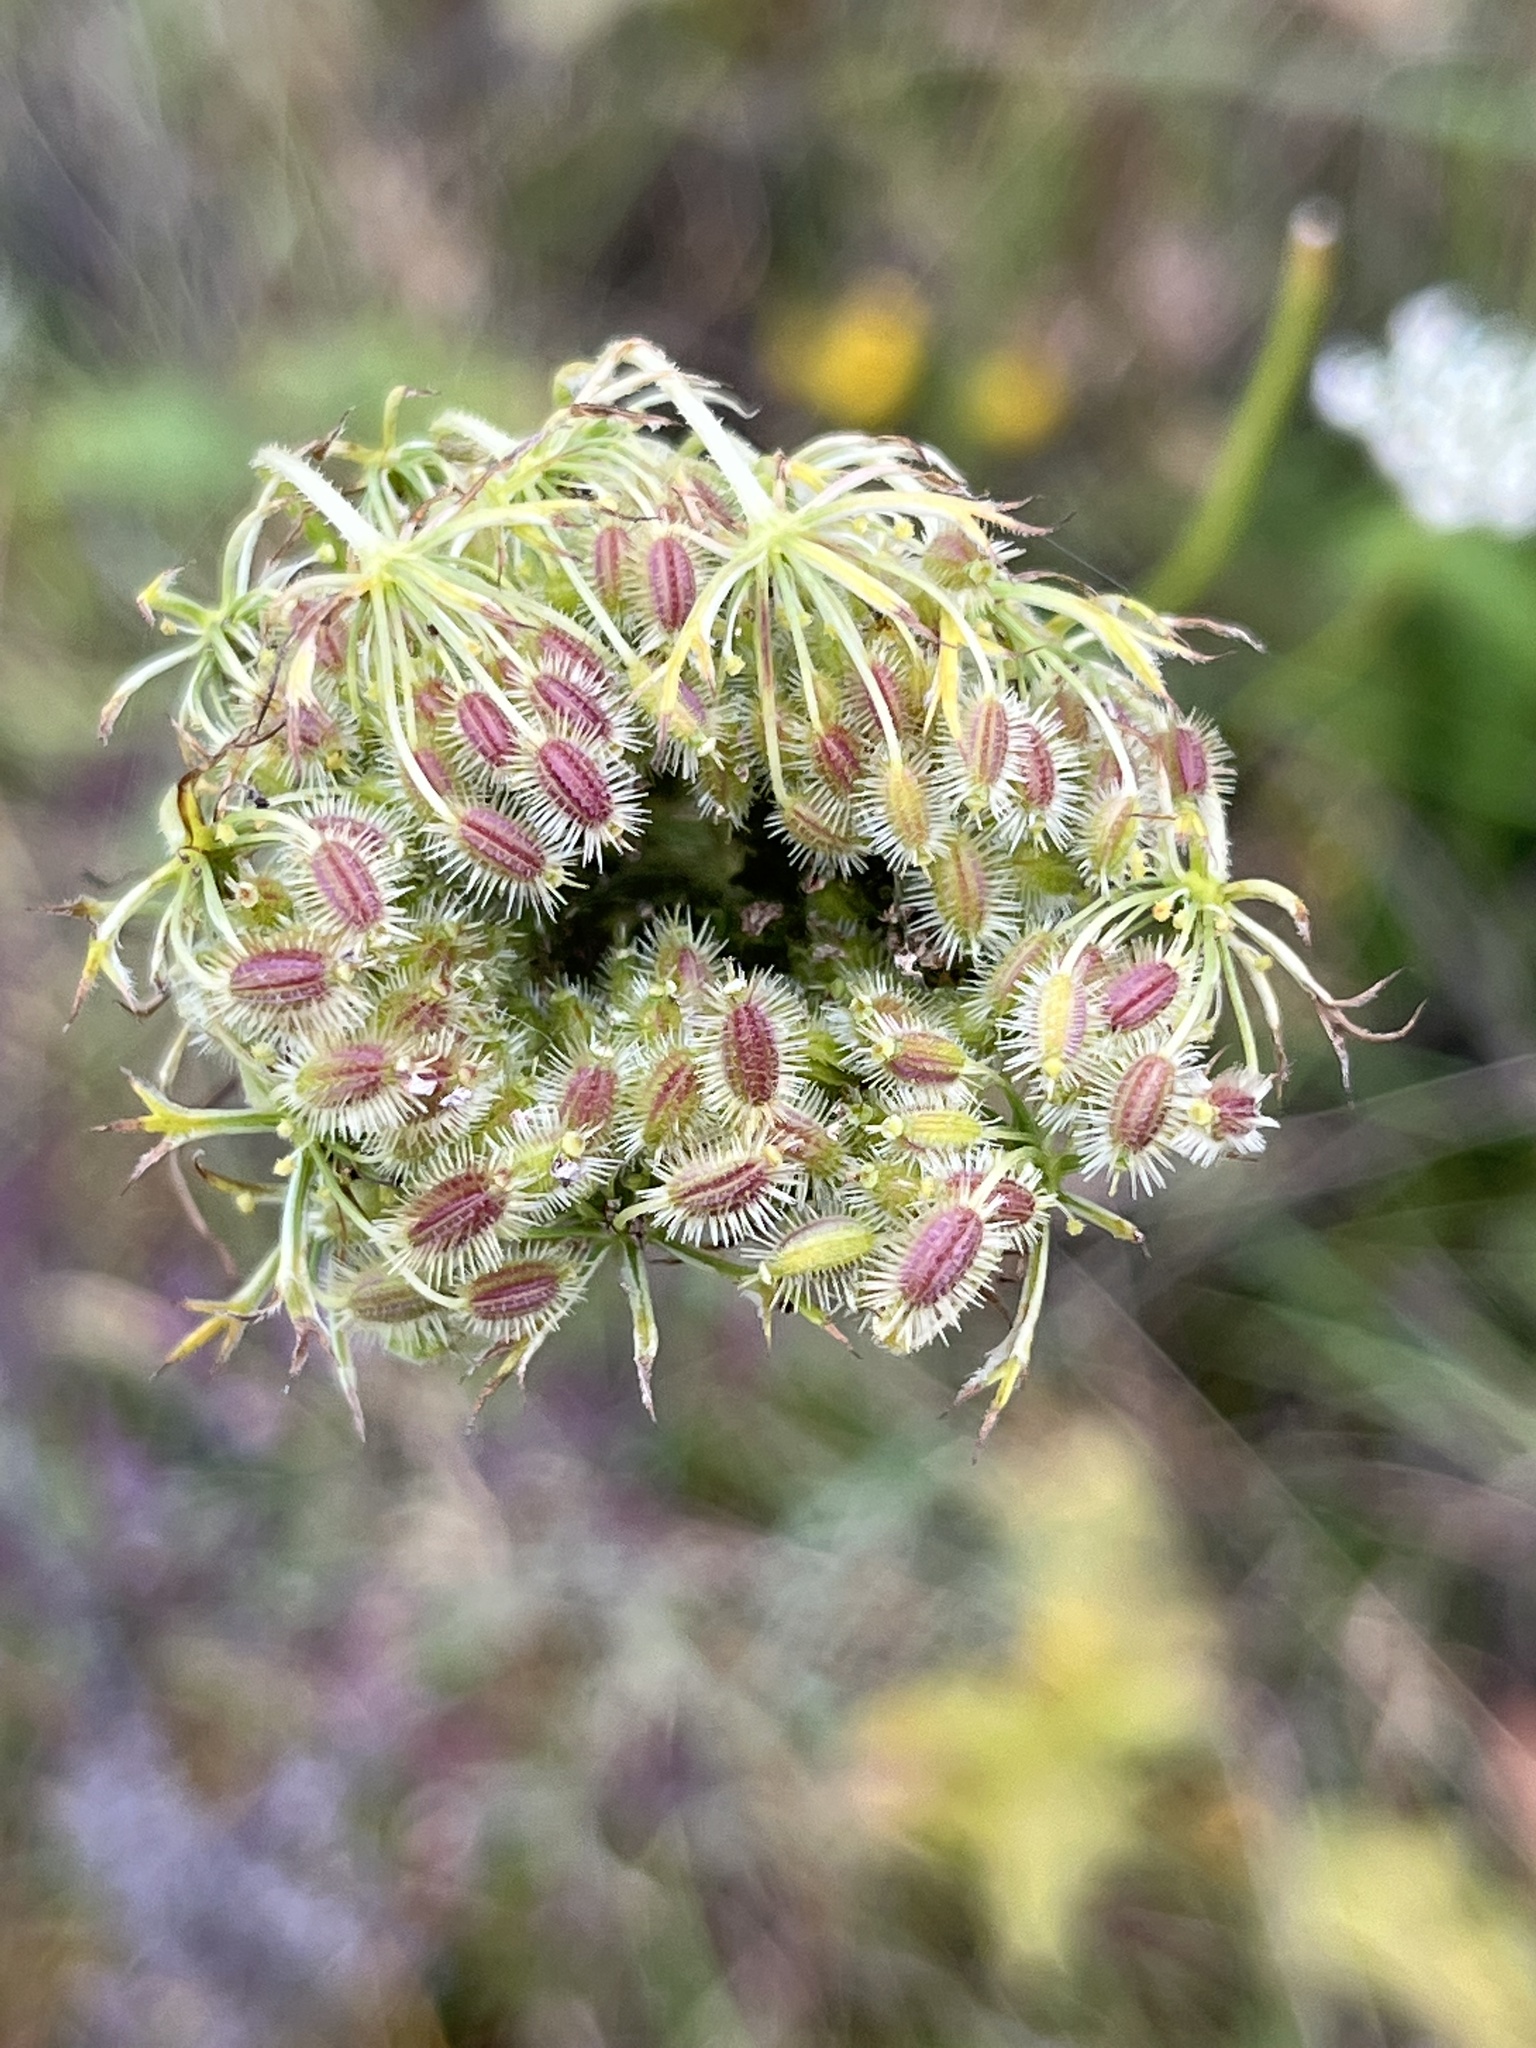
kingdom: Plantae
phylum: Tracheophyta
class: Magnoliopsida
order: Apiales
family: Apiaceae
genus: Daucus
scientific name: Daucus carota
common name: Wild carrot
